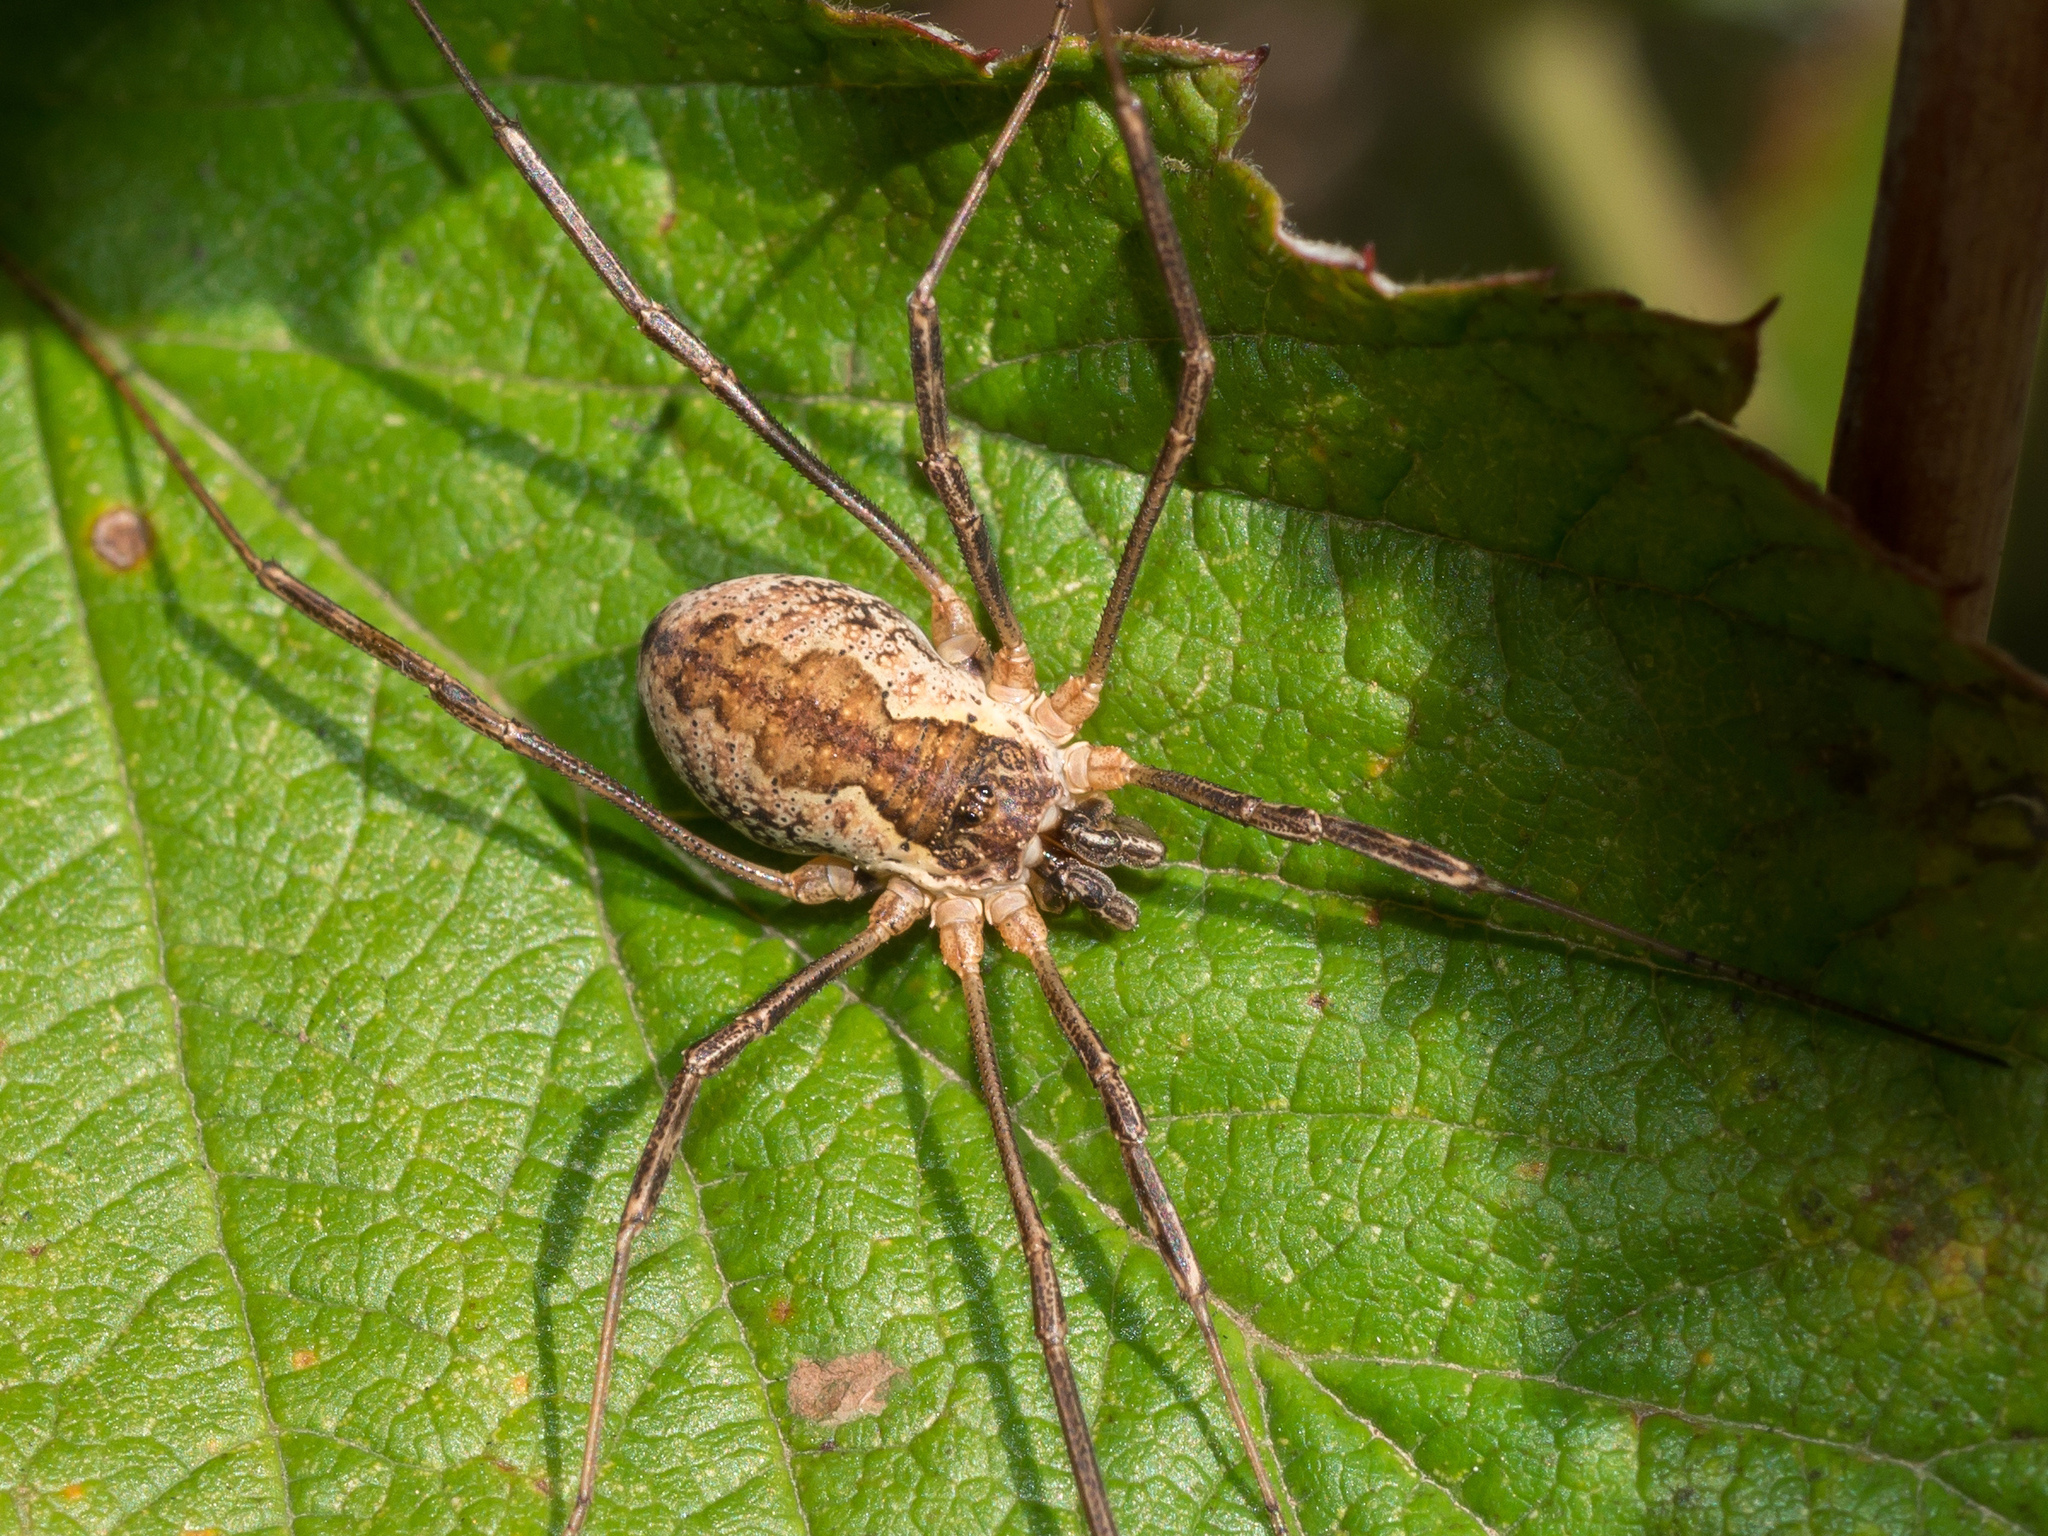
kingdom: Animalia
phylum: Arthropoda
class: Arachnida
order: Opiliones
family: Phalangiidae
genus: Mitopus
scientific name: Mitopus morio
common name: Saddleback harvestman
